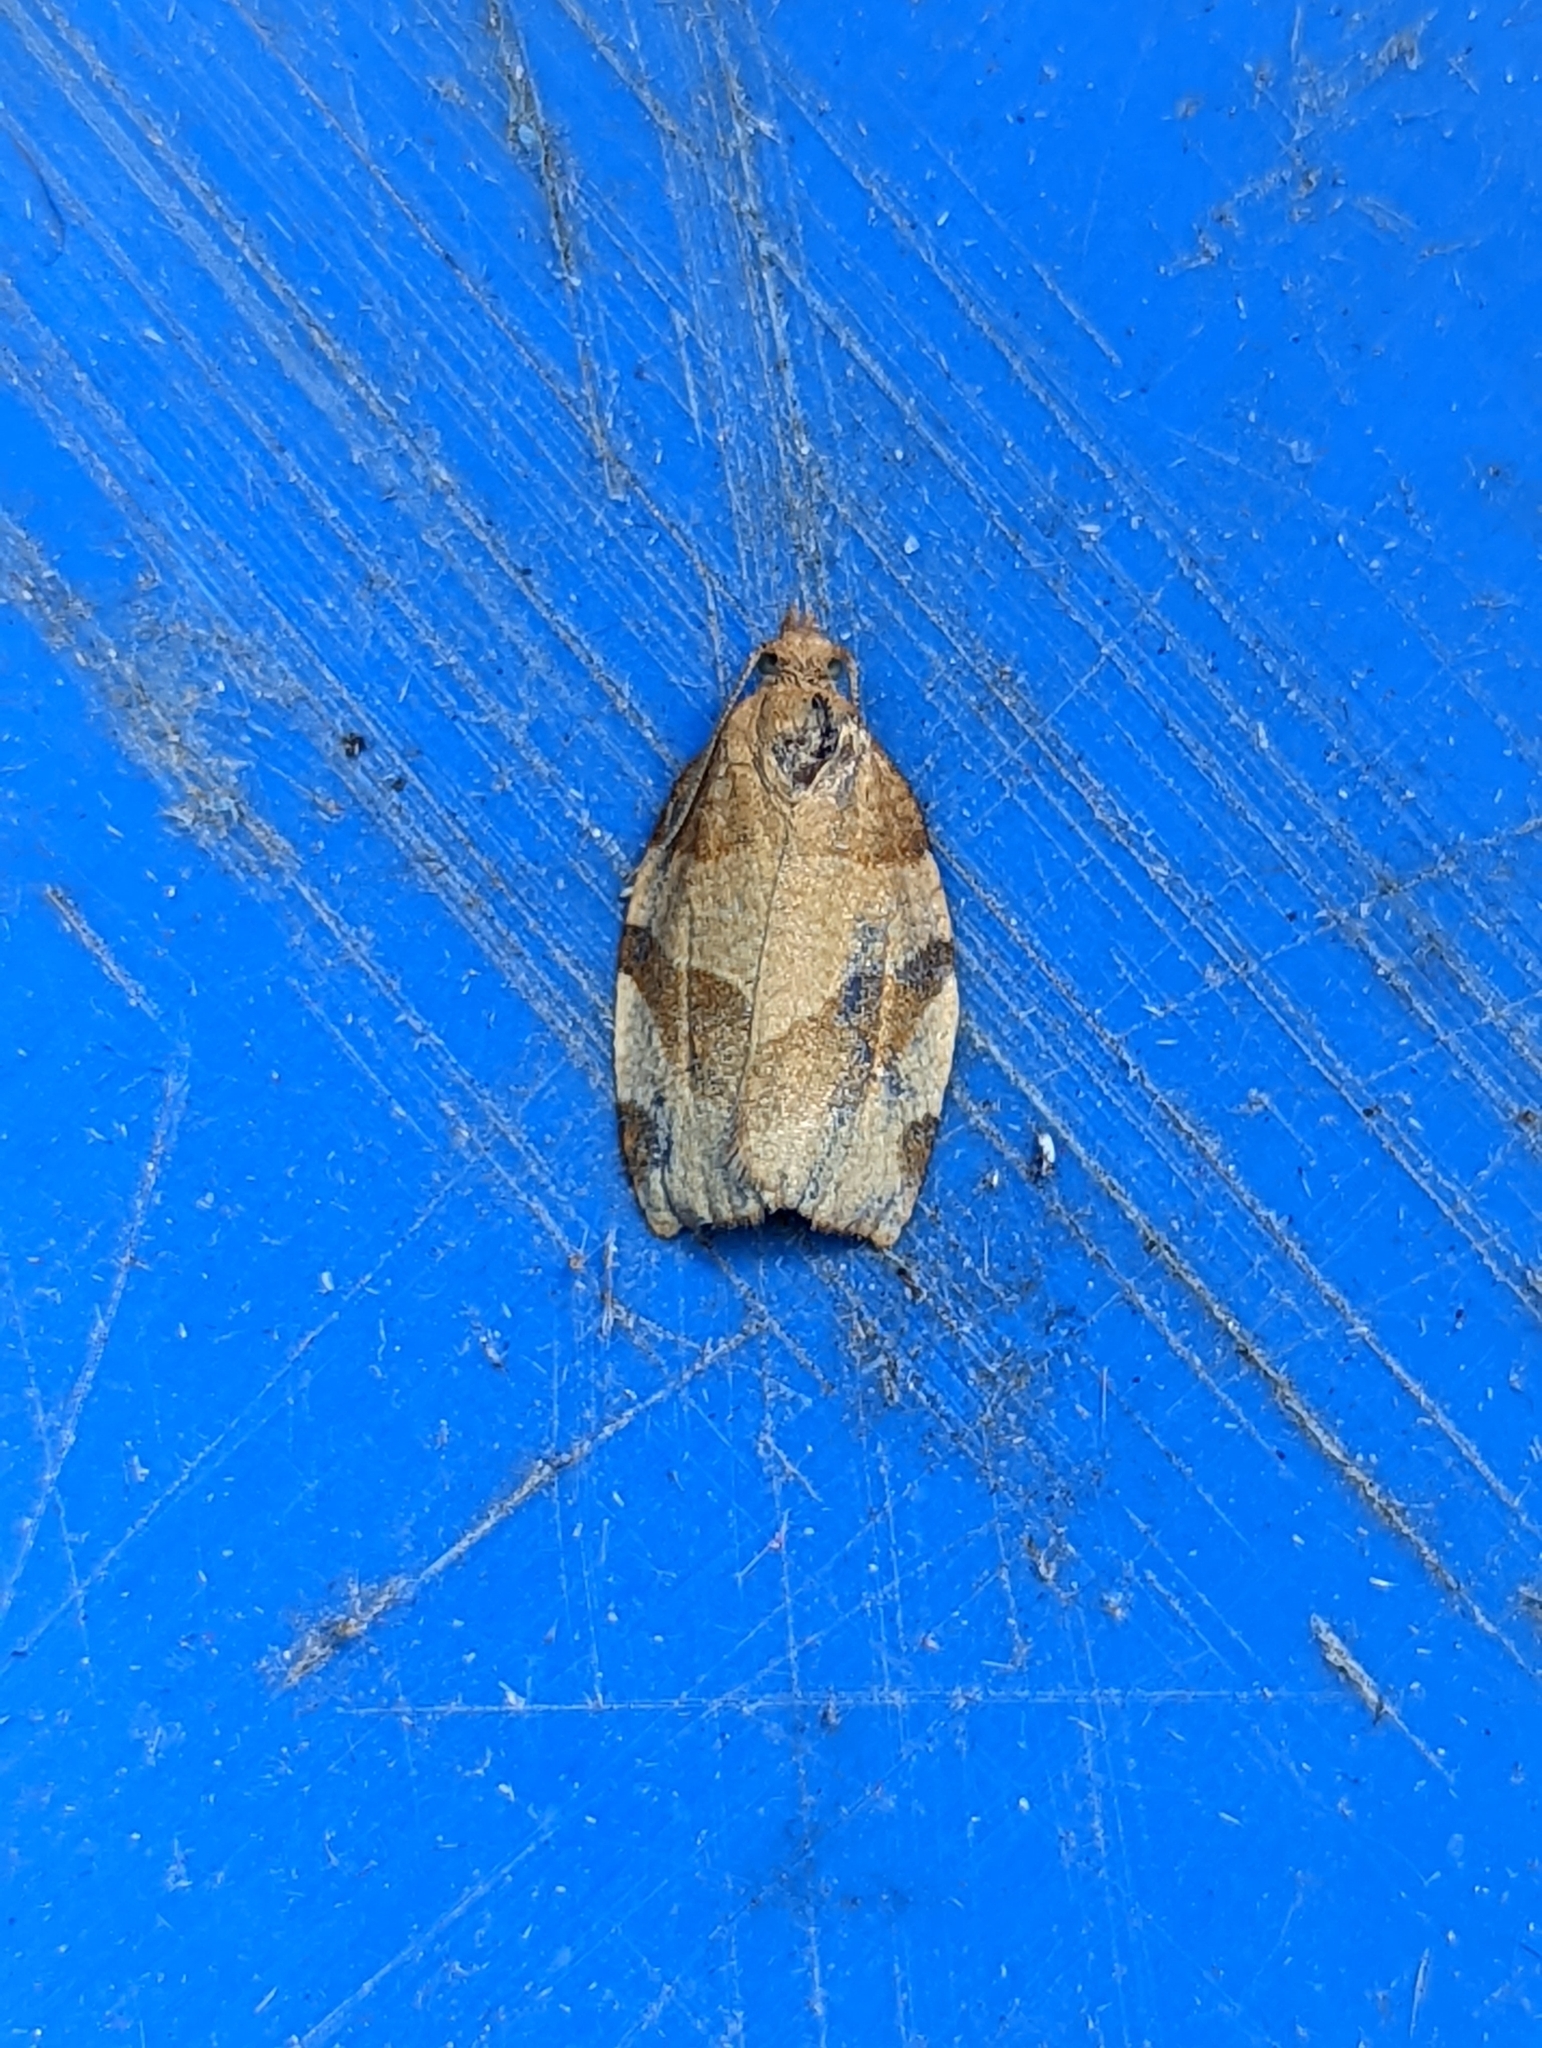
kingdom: Animalia
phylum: Arthropoda
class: Insecta
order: Lepidoptera
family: Tortricidae
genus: Pandemis
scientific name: Pandemis cerasana
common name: Barred fruit-tree tortrix
